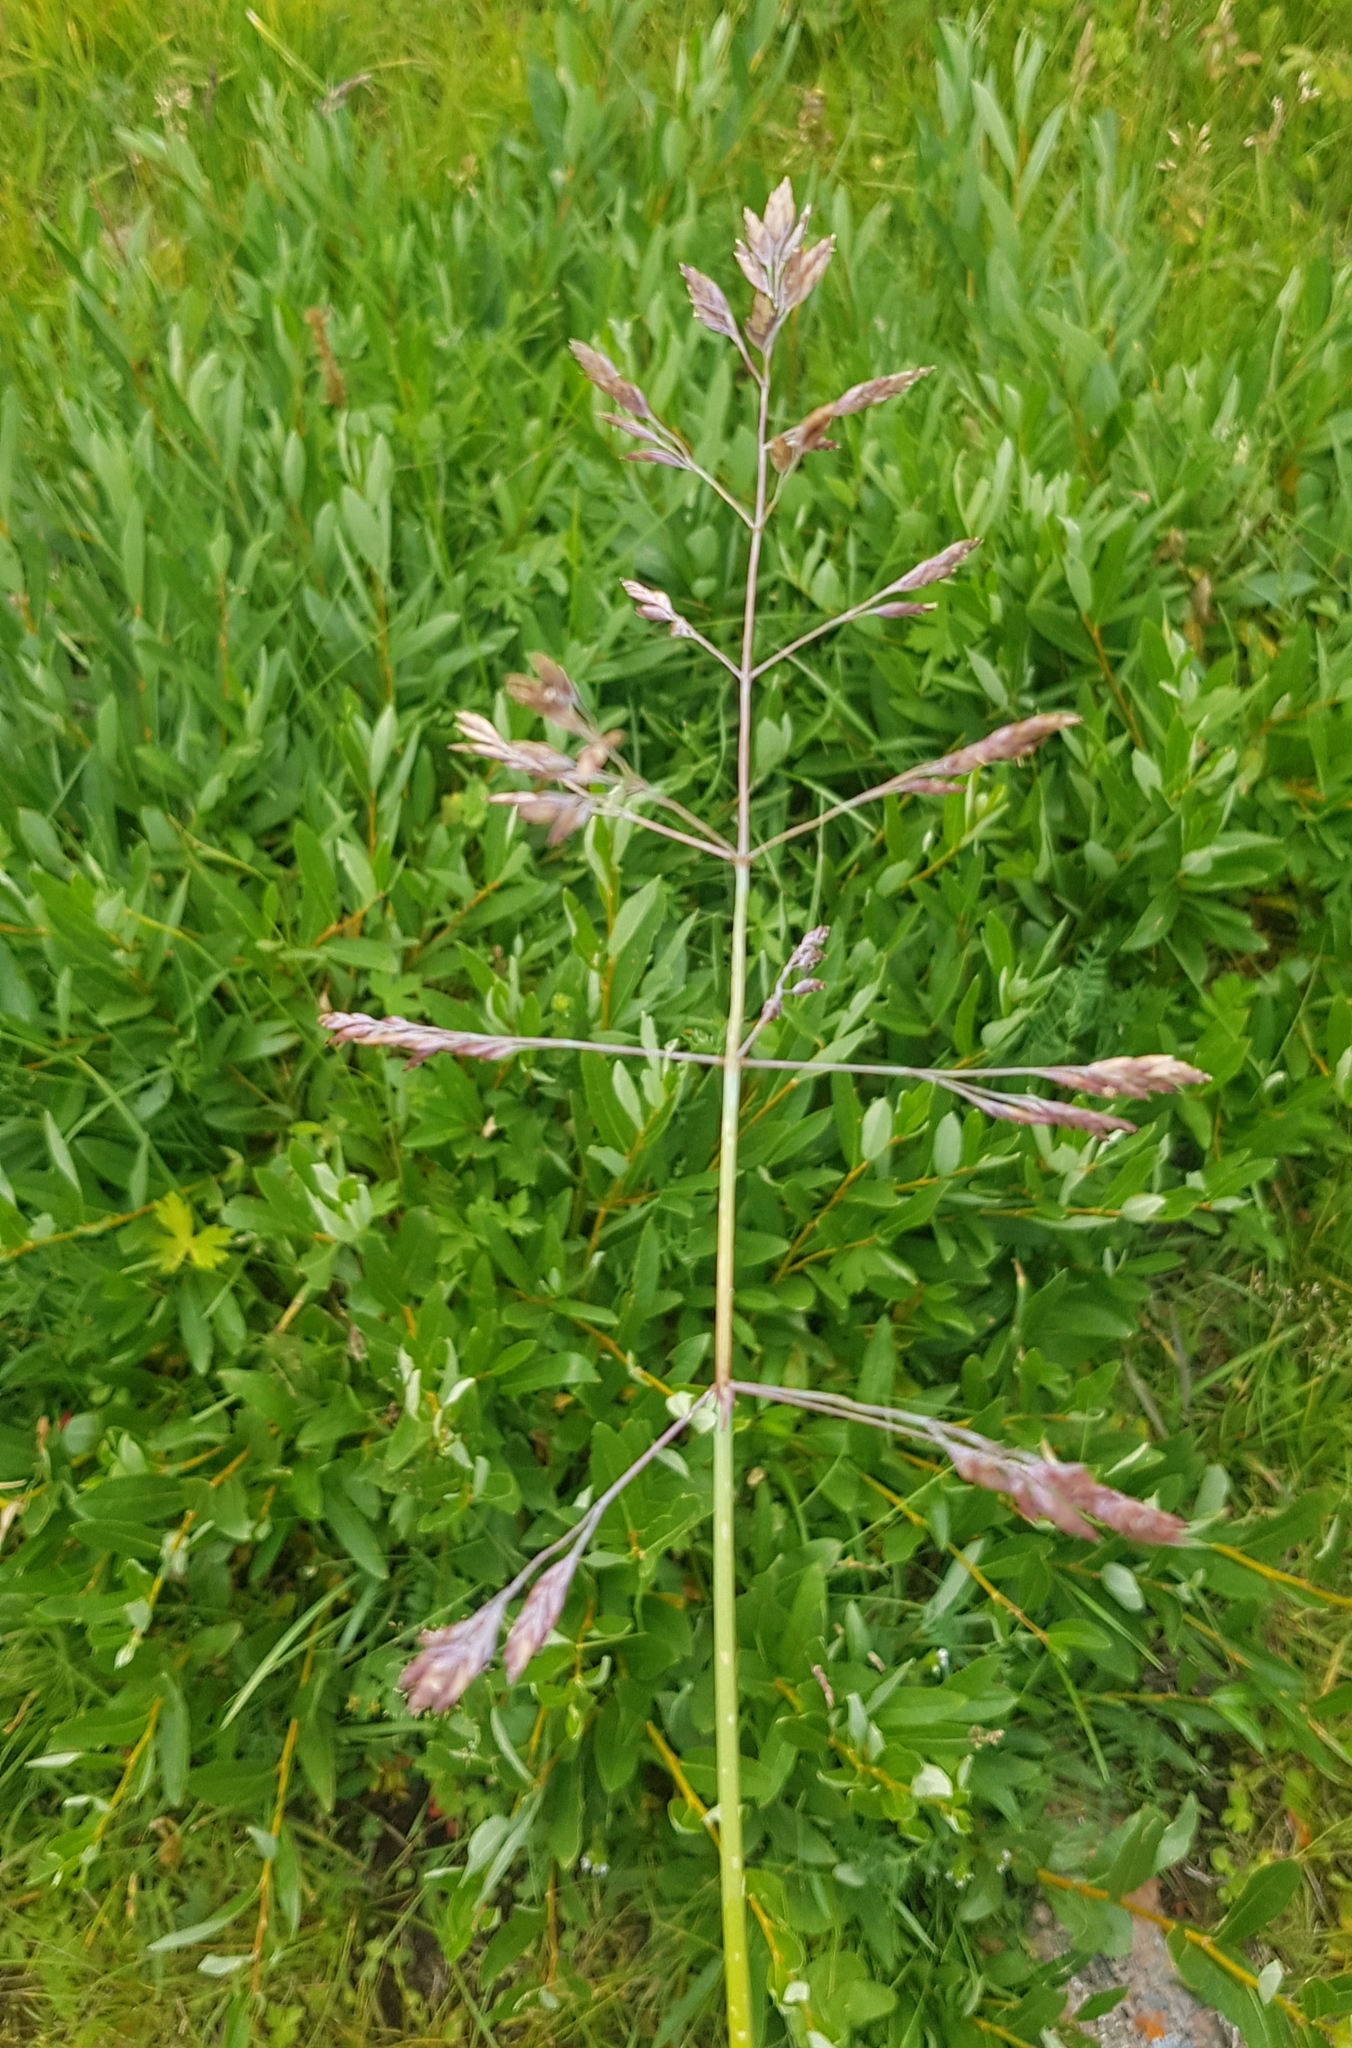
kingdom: Plantae
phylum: Tracheophyta
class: Liliopsida
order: Poales
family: Poaceae
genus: Poa
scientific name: Poa subfastigiata
